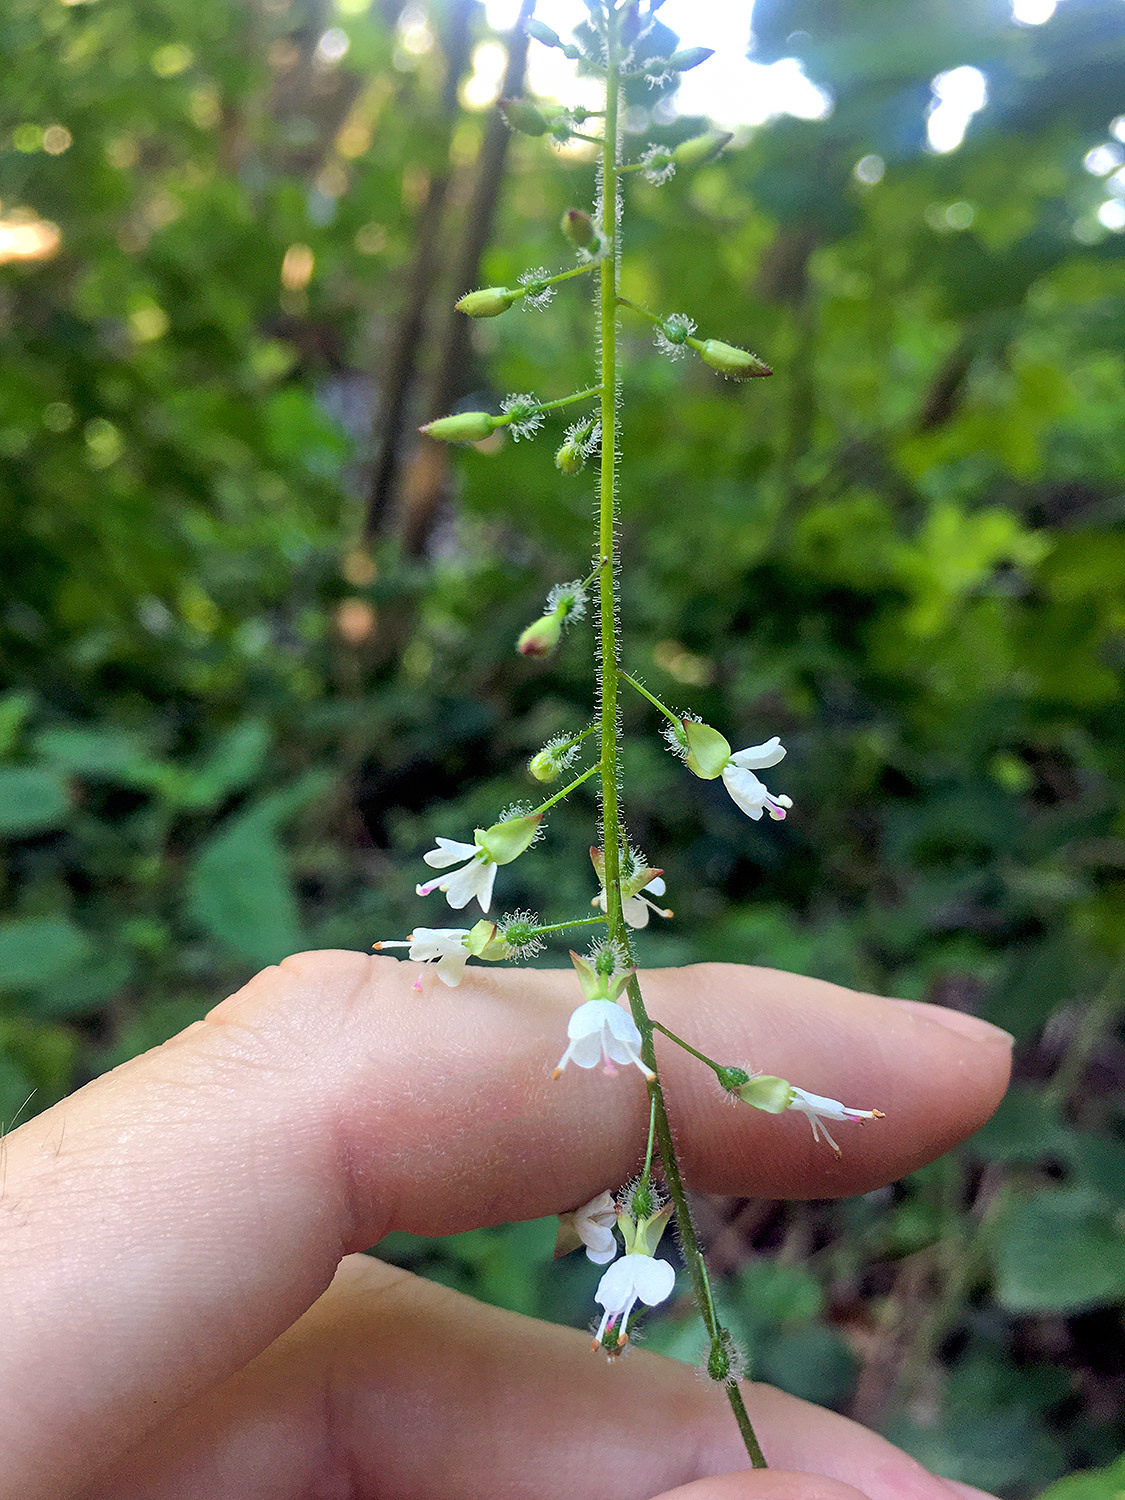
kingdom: Plantae
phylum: Tracheophyta
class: Magnoliopsida
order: Myrtales
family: Onagraceae
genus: Circaea
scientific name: Circaea lutetiana
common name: Enchanter's-nightshade
